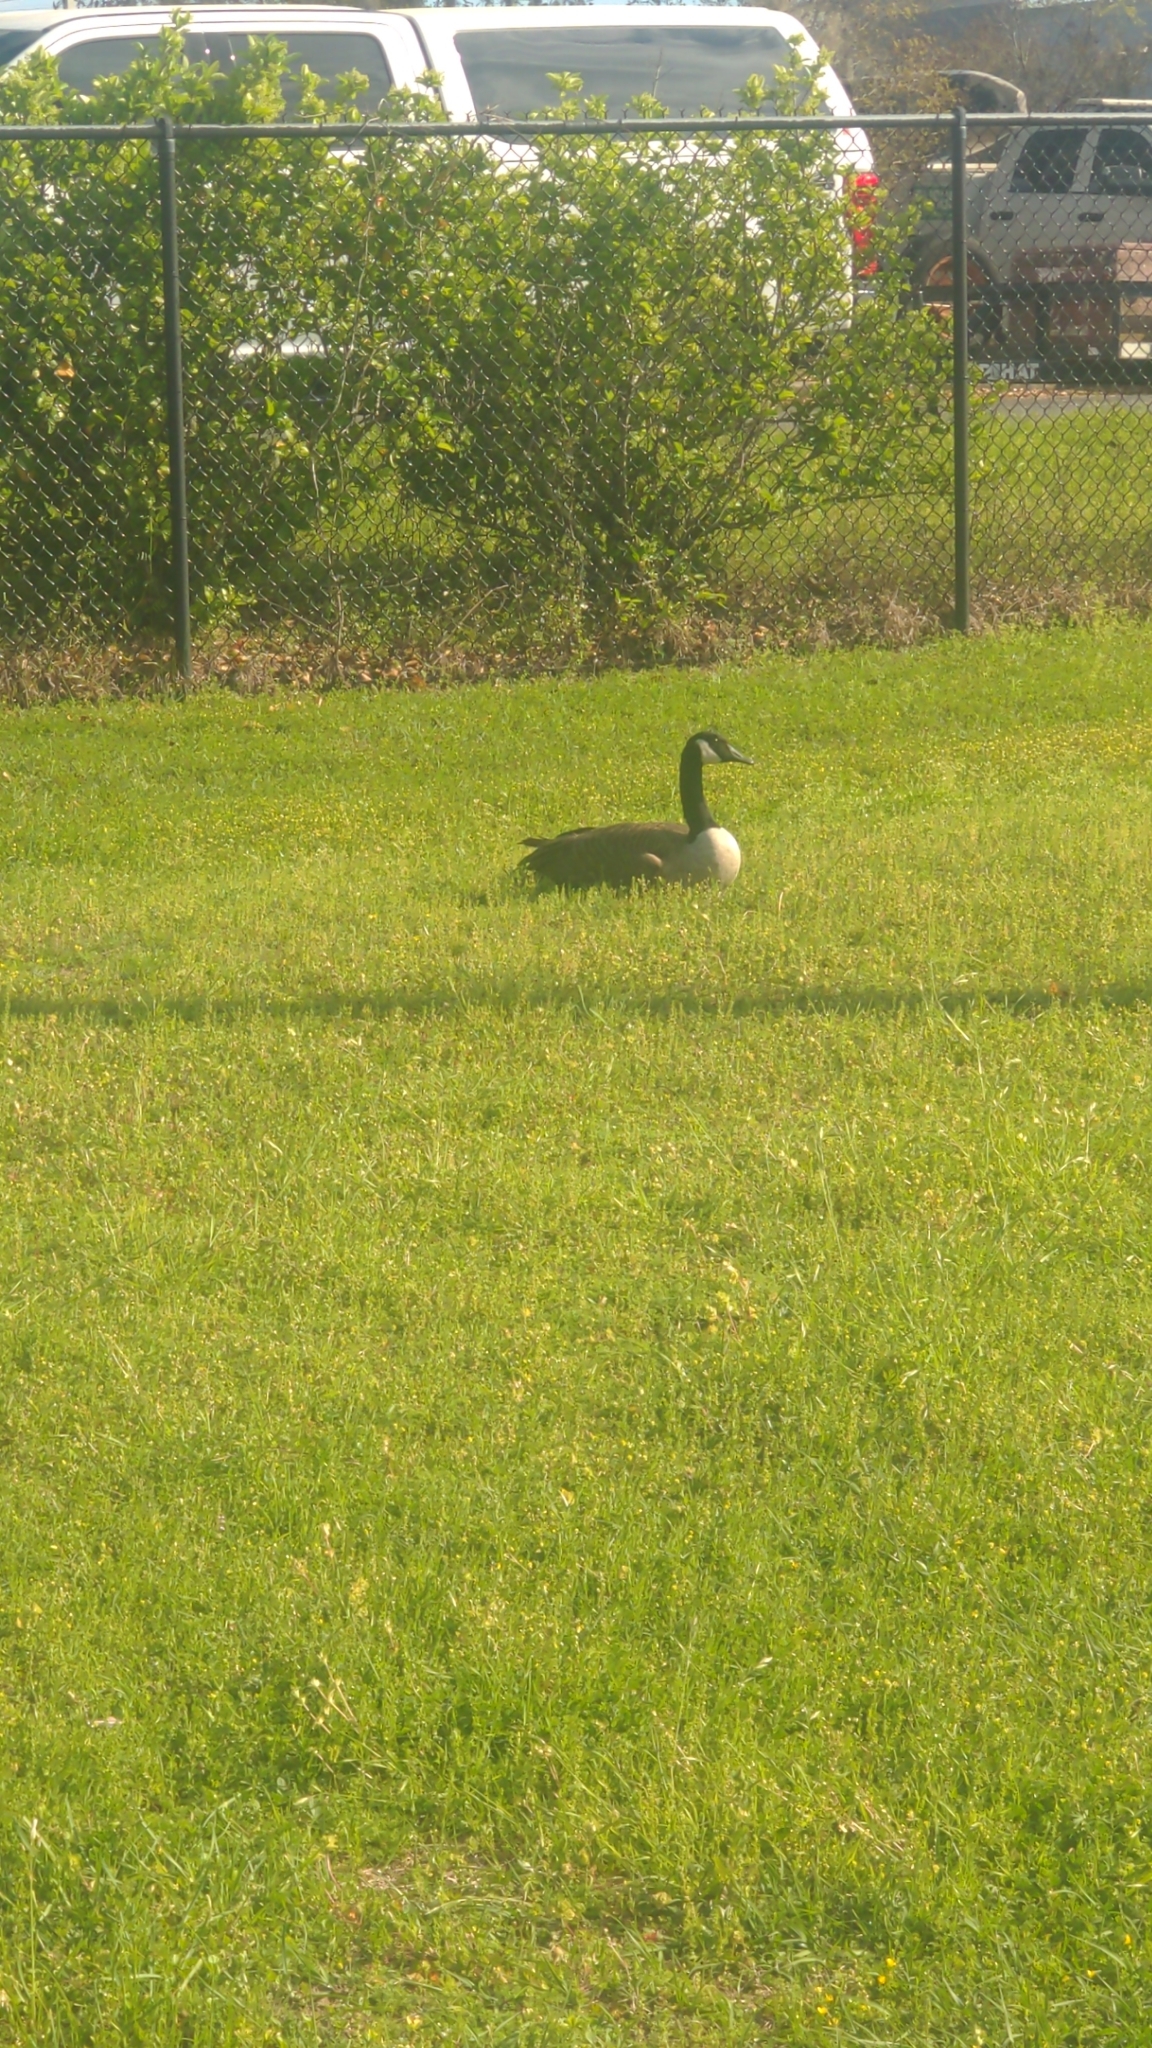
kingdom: Animalia
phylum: Chordata
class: Aves
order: Anseriformes
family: Anatidae
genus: Branta
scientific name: Branta canadensis
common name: Canada goose
